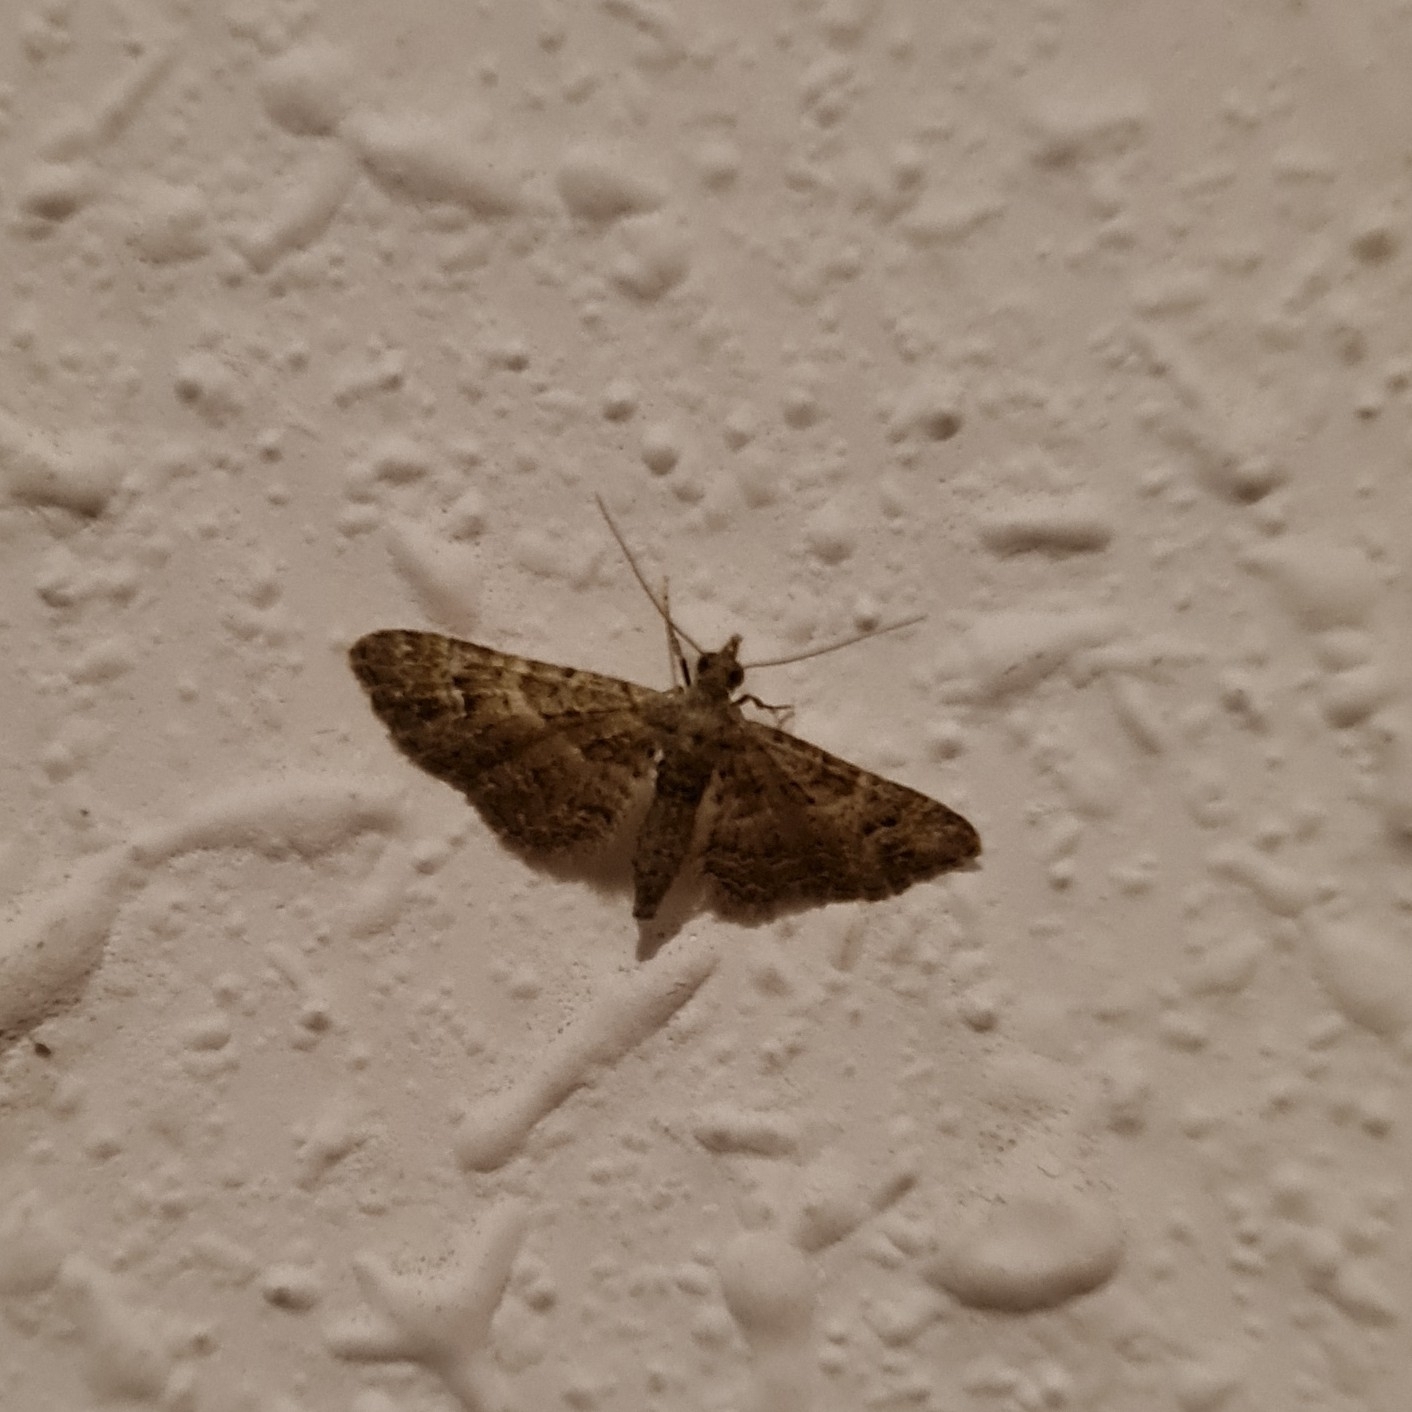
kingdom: Animalia
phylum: Arthropoda
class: Insecta
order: Lepidoptera
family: Geometridae
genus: Gymnoscelis
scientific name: Gymnoscelis rufifasciata
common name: Double-striped pug
